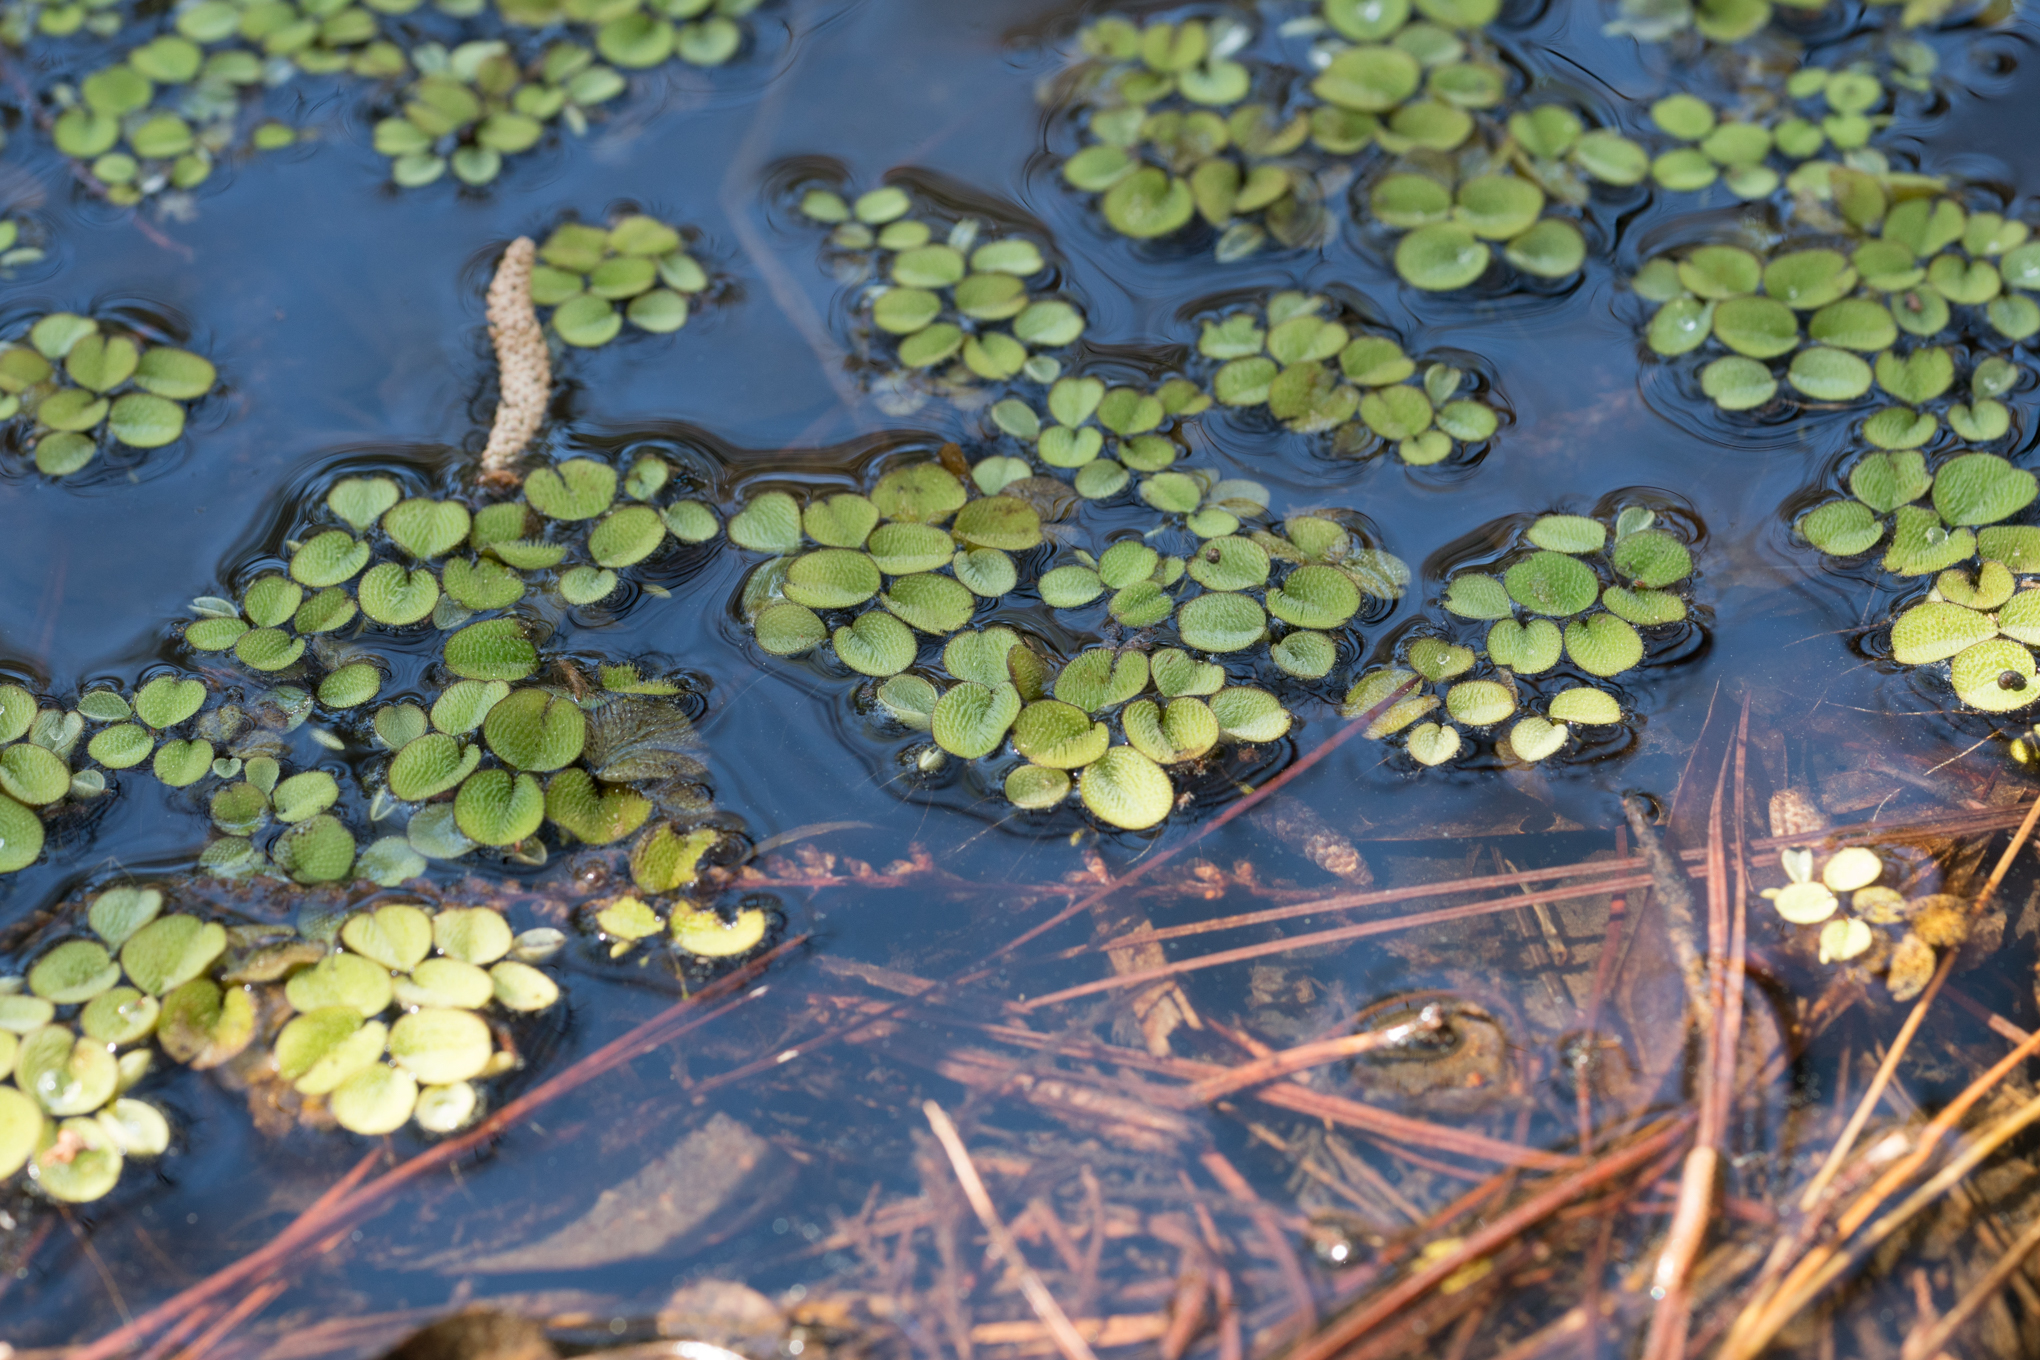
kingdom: Plantae
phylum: Tracheophyta
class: Polypodiopsida
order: Salviniales
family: Salviniaceae
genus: Salvinia
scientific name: Salvinia minima
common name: Water spangles
